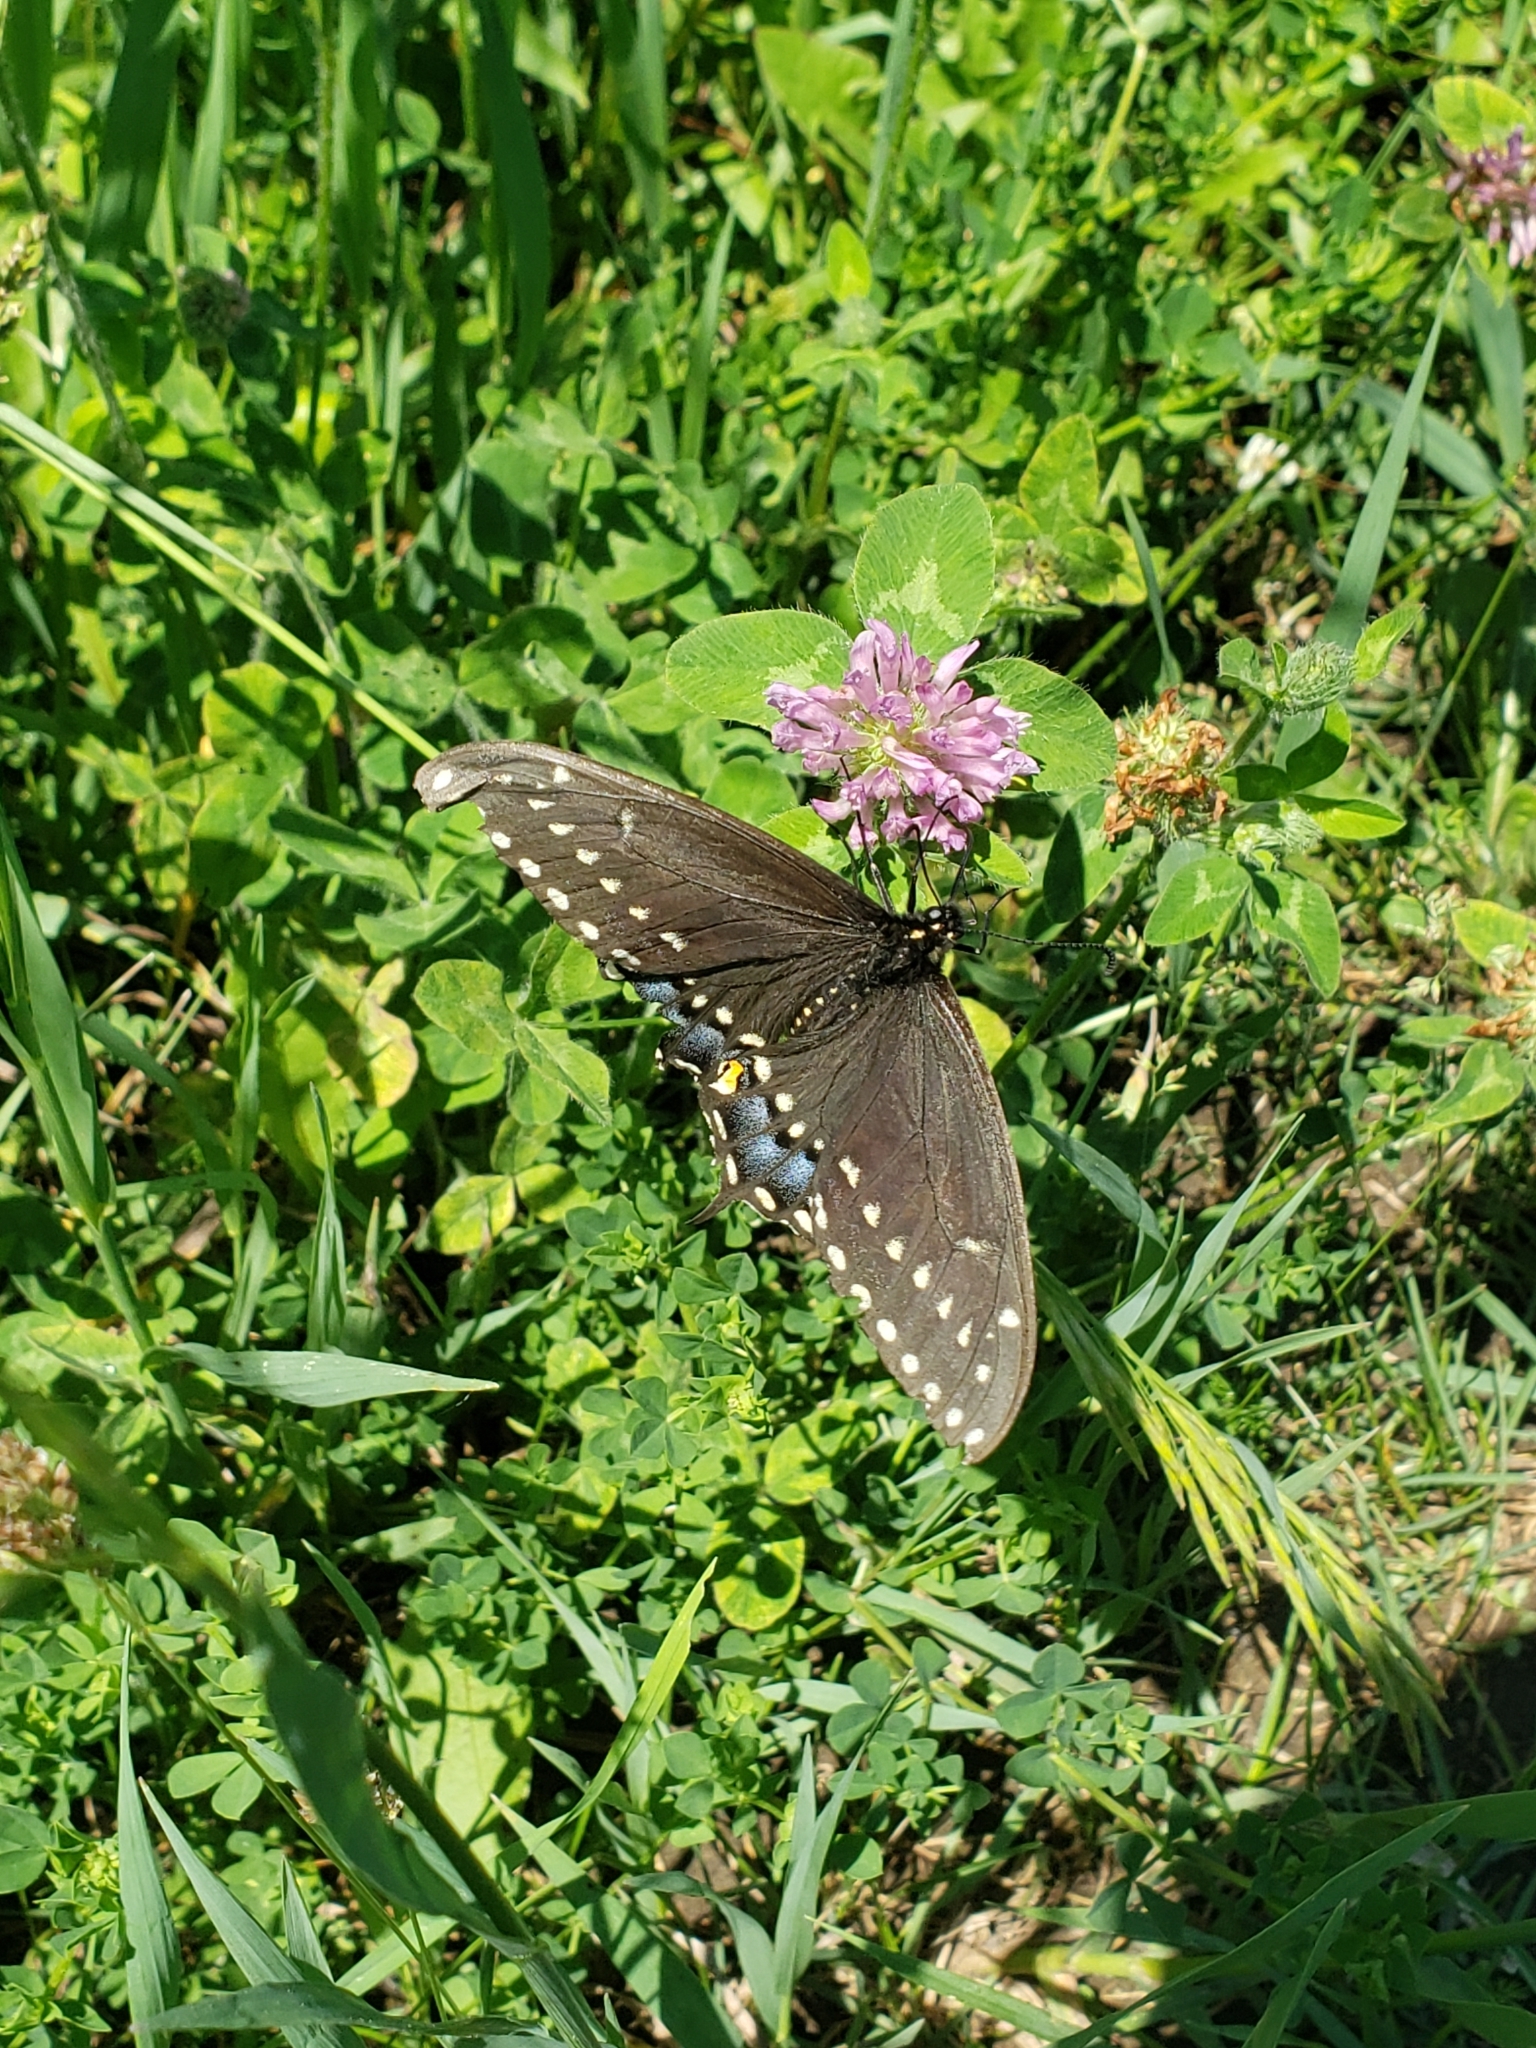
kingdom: Animalia
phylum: Arthropoda
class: Insecta
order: Lepidoptera
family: Papilionidae
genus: Papilio
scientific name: Papilio polyxenes
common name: Black swallowtail
